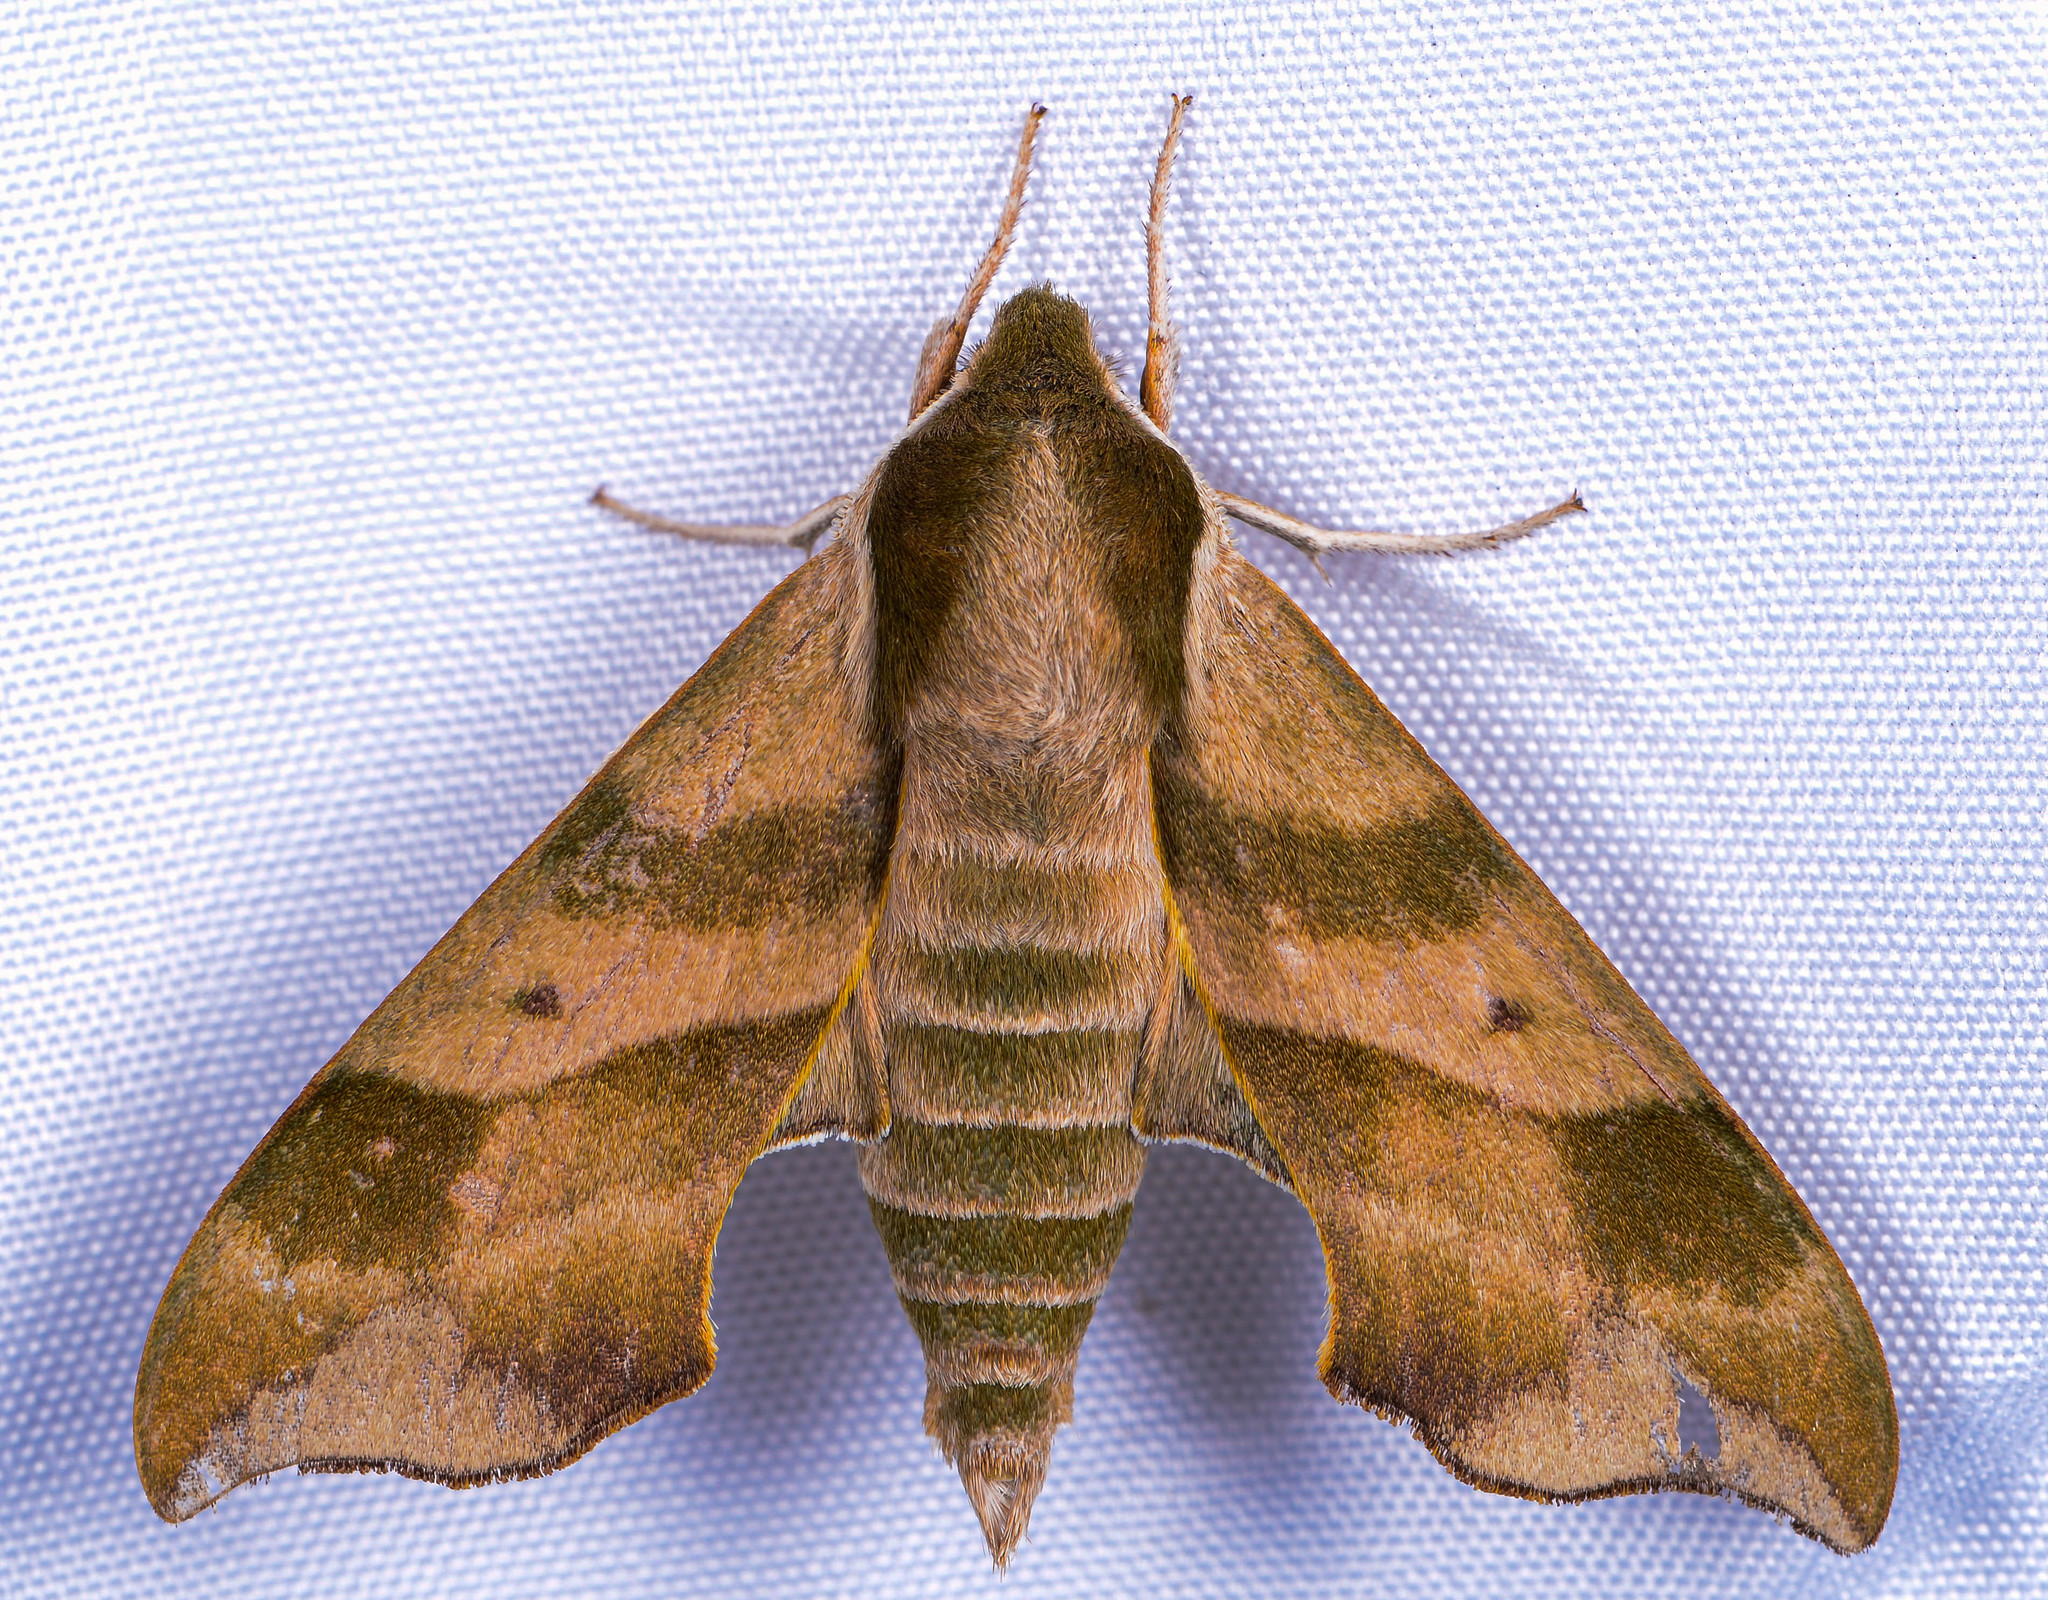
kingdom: Animalia
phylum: Arthropoda
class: Insecta
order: Lepidoptera
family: Sphingidae
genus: Darapsa
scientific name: Darapsa myron
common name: Hog sphinx
